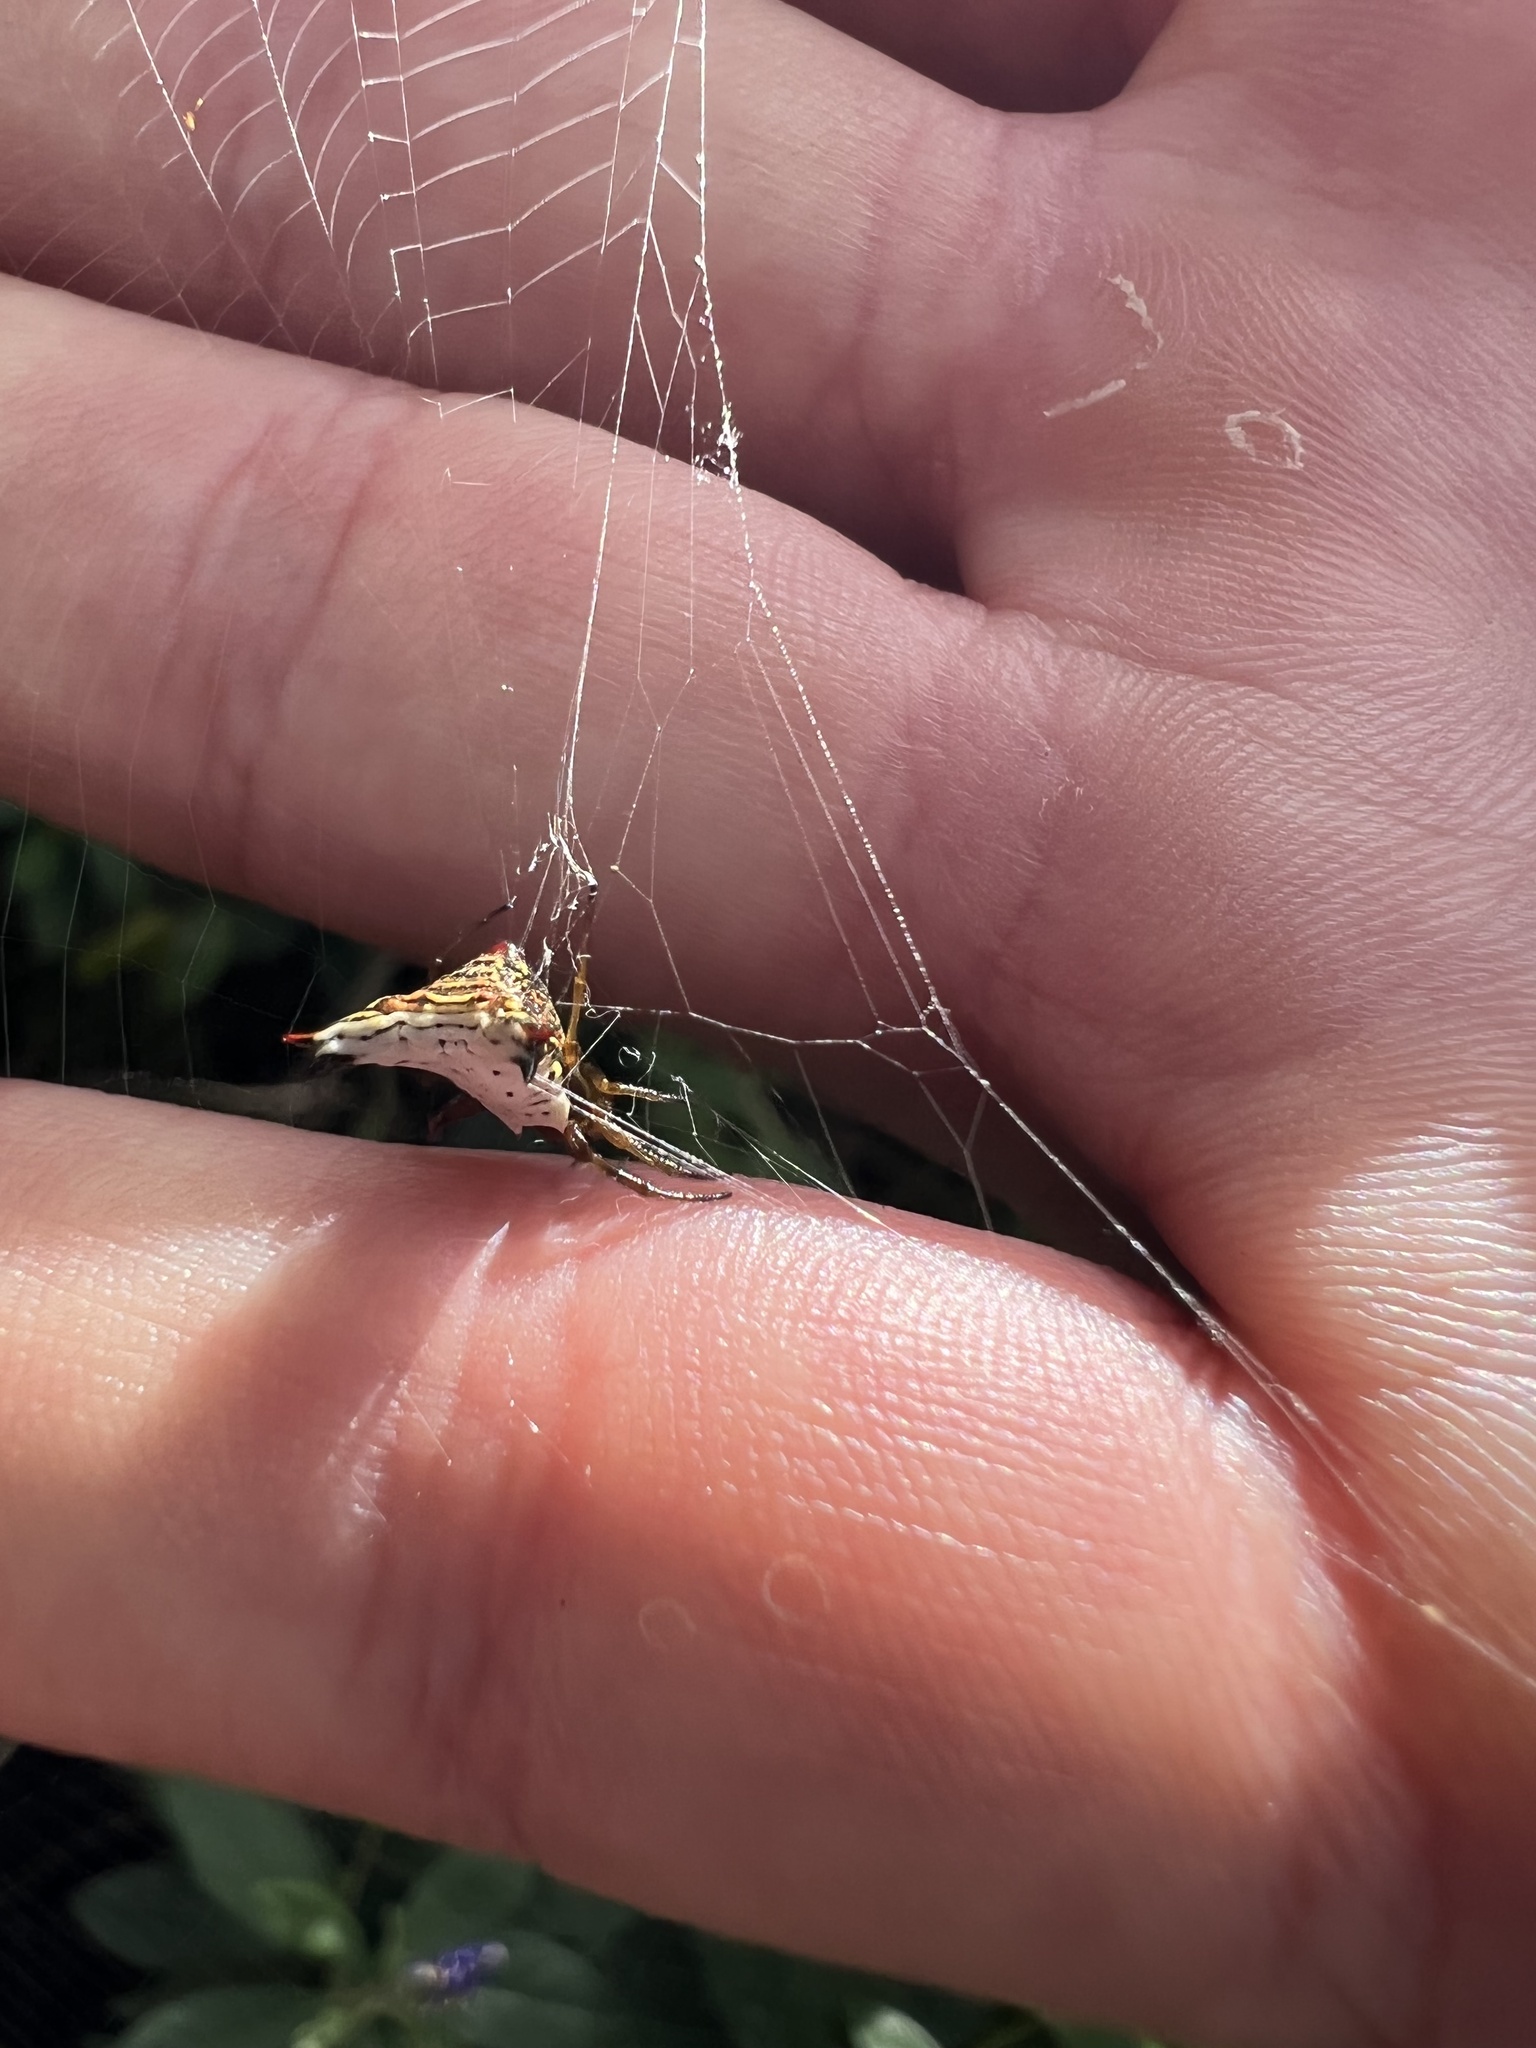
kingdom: Animalia
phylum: Arthropoda
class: Arachnida
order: Araneae
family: Araneidae
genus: Micrathena
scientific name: Micrathena lucasi
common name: Orb weavers
